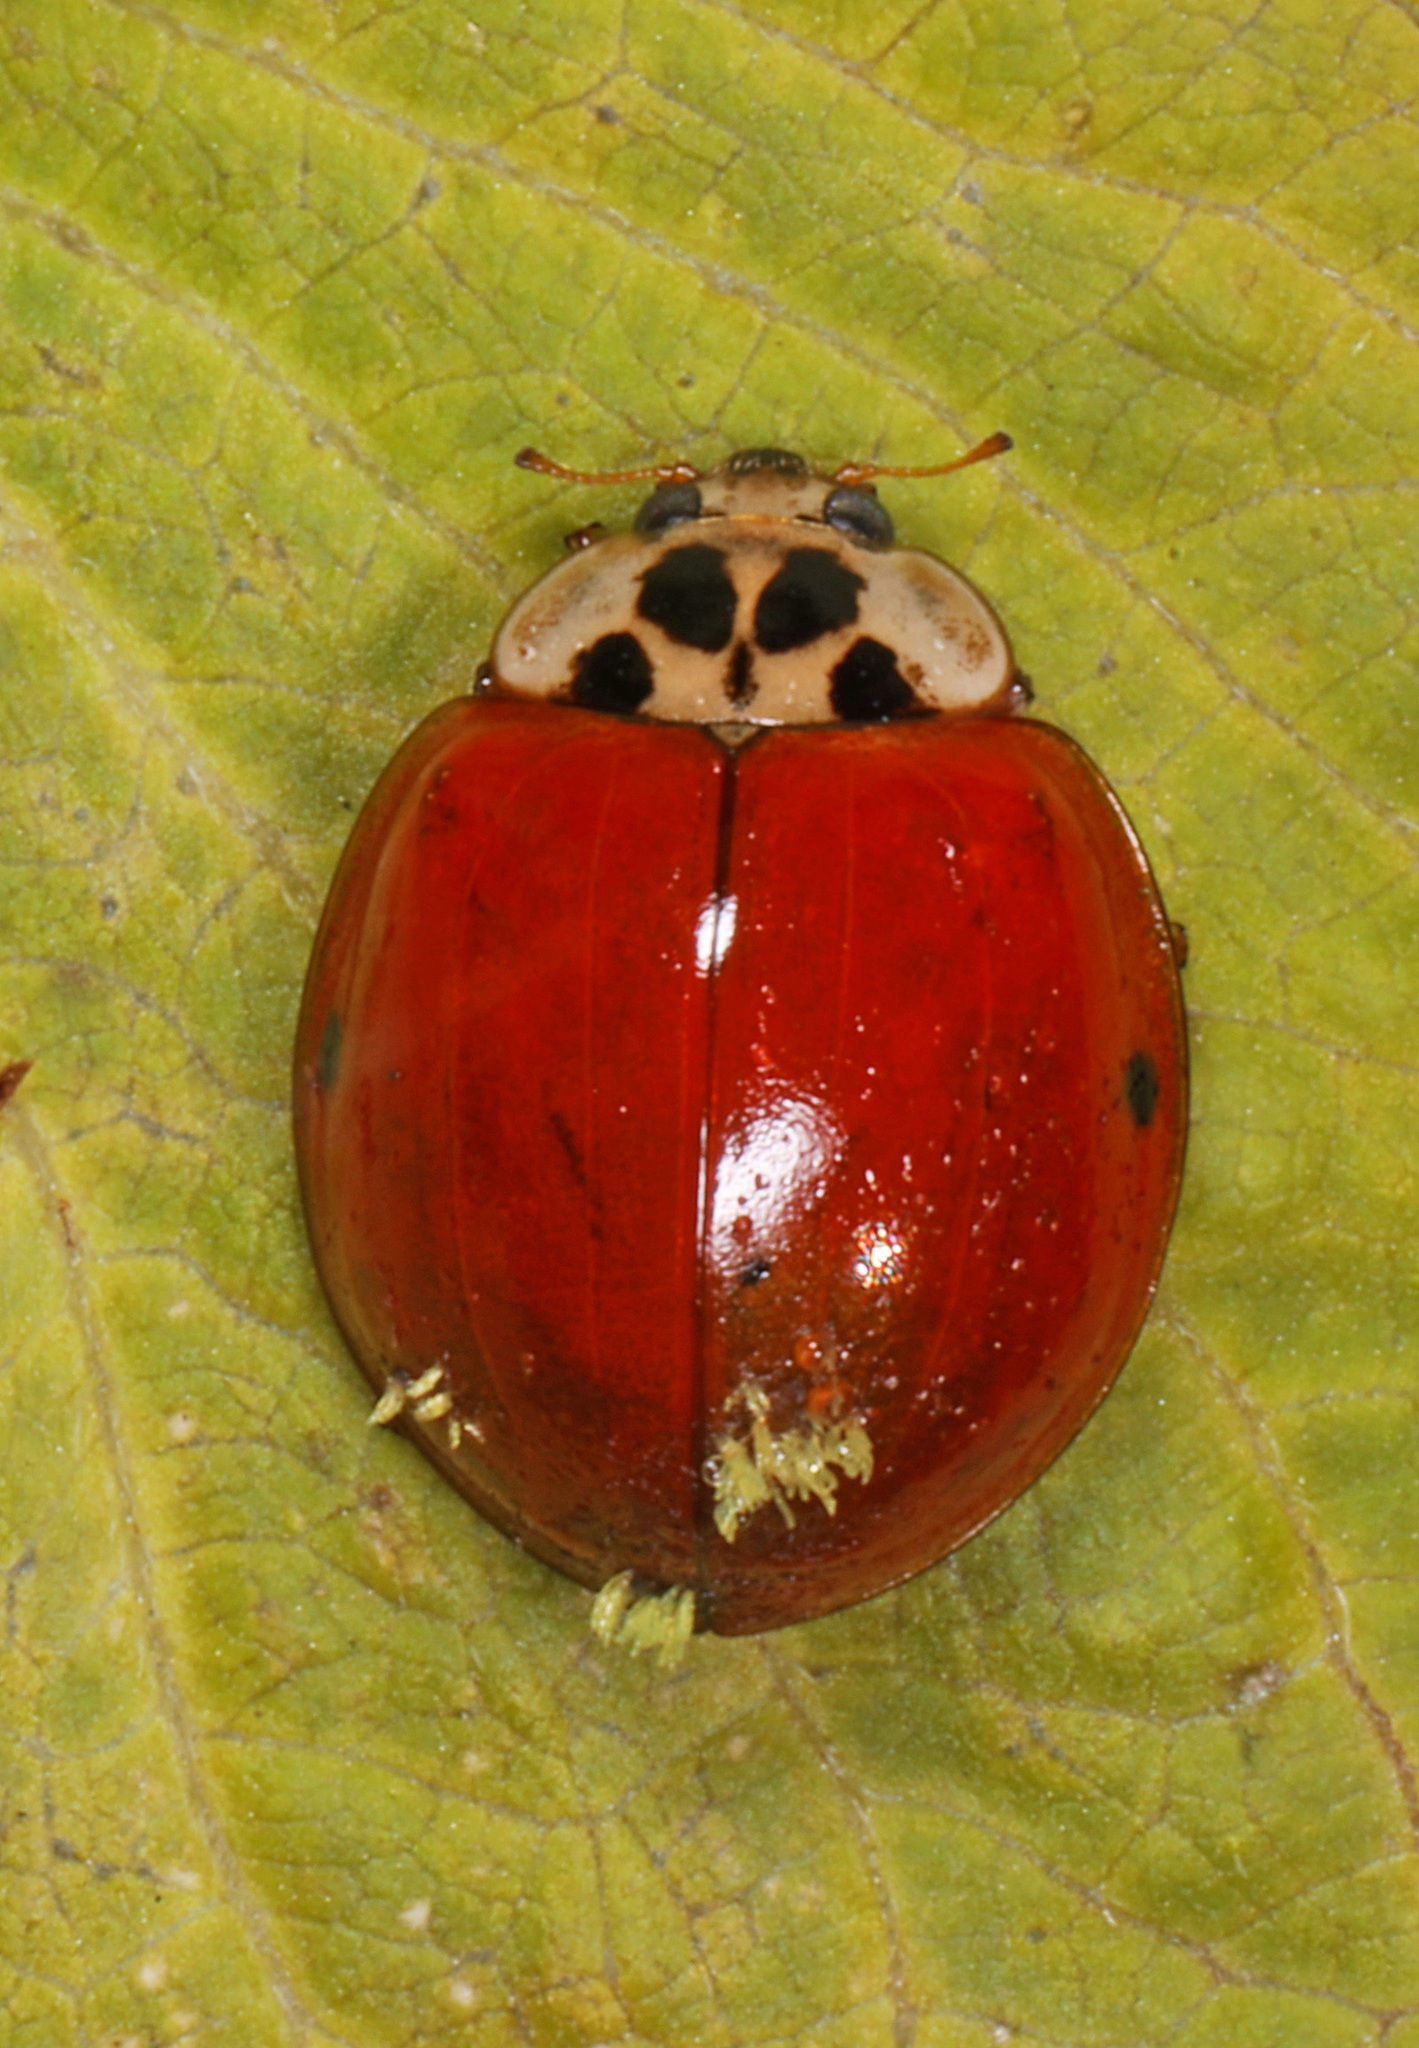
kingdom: Animalia
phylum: Arthropoda
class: Insecta
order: Coleoptera
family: Coccinellidae
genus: Harmonia
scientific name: Harmonia axyridis
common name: Harlequin ladybird
